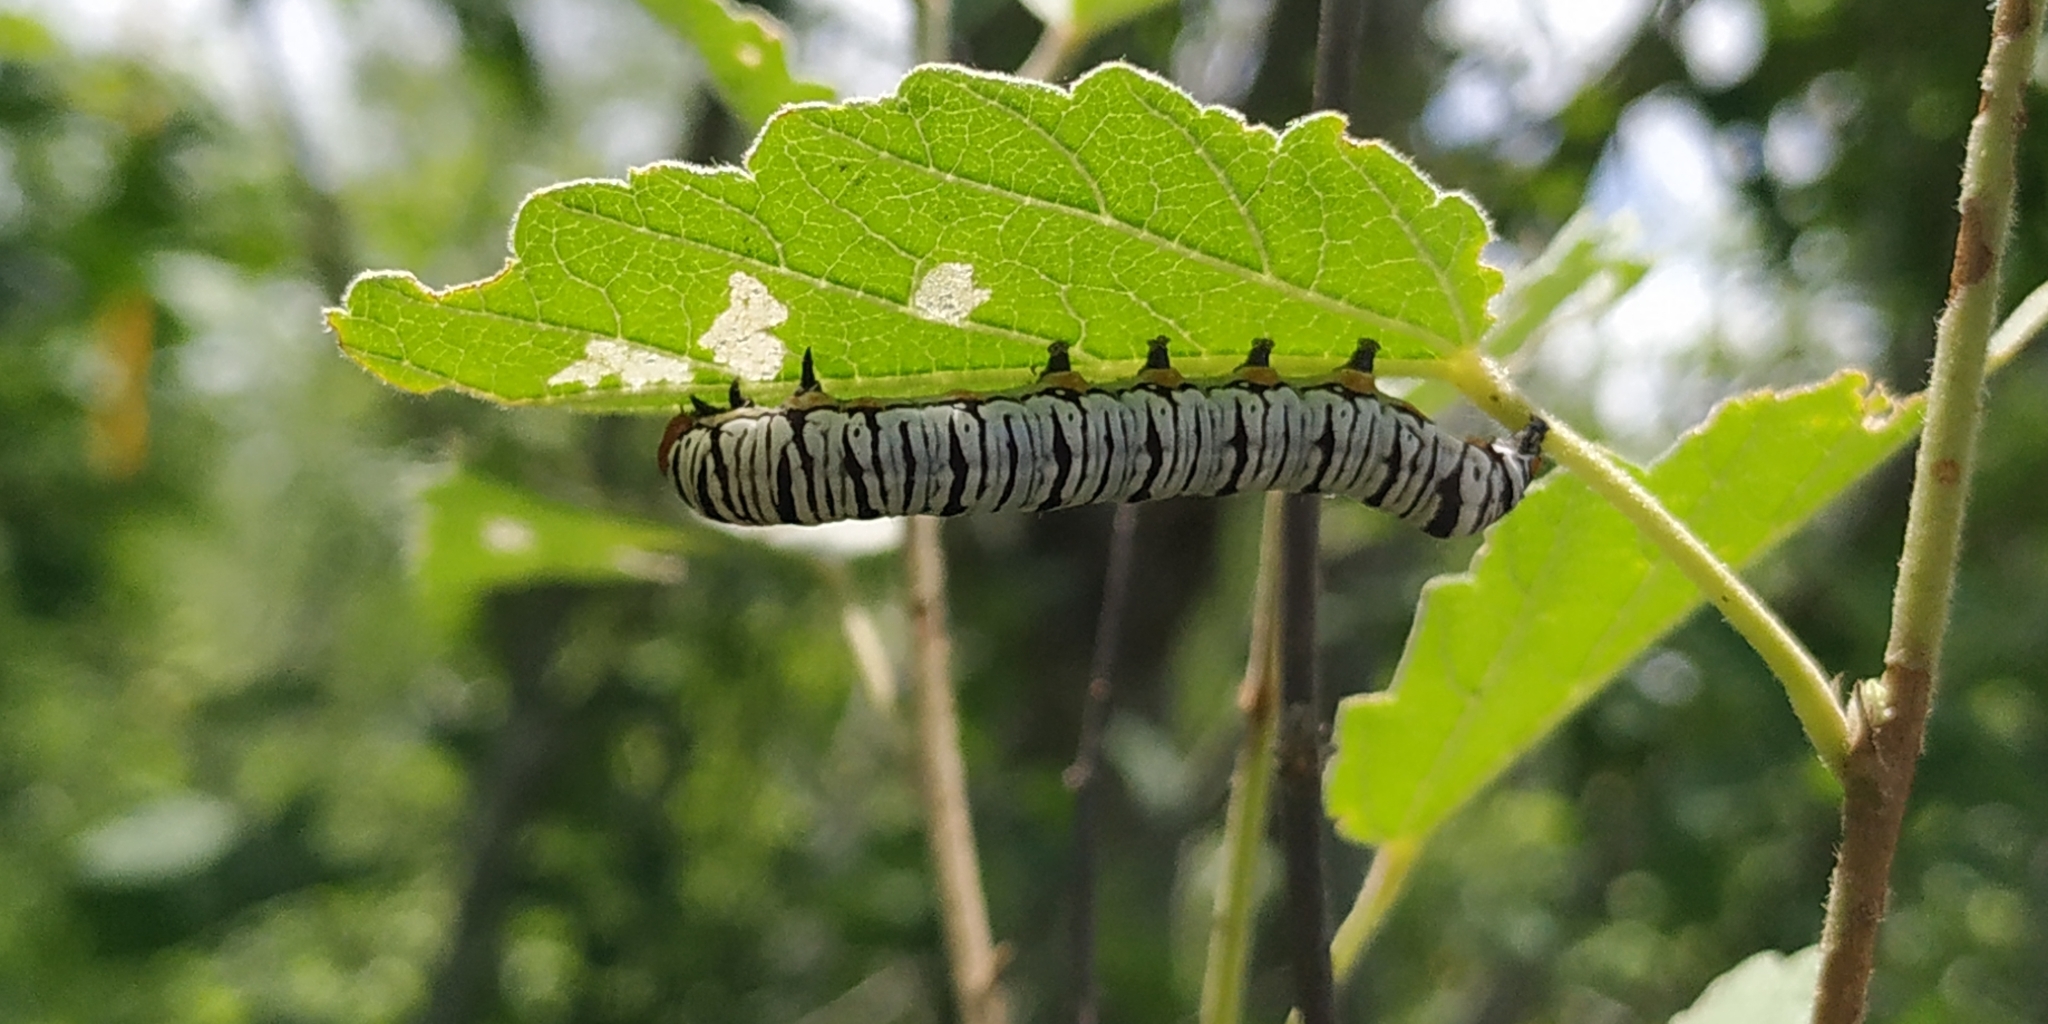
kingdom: Animalia
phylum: Arthropoda
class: Insecta
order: Lepidoptera
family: Erebidae
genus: Diphthera
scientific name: Diphthera festiva
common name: Hieroglyphic moth
